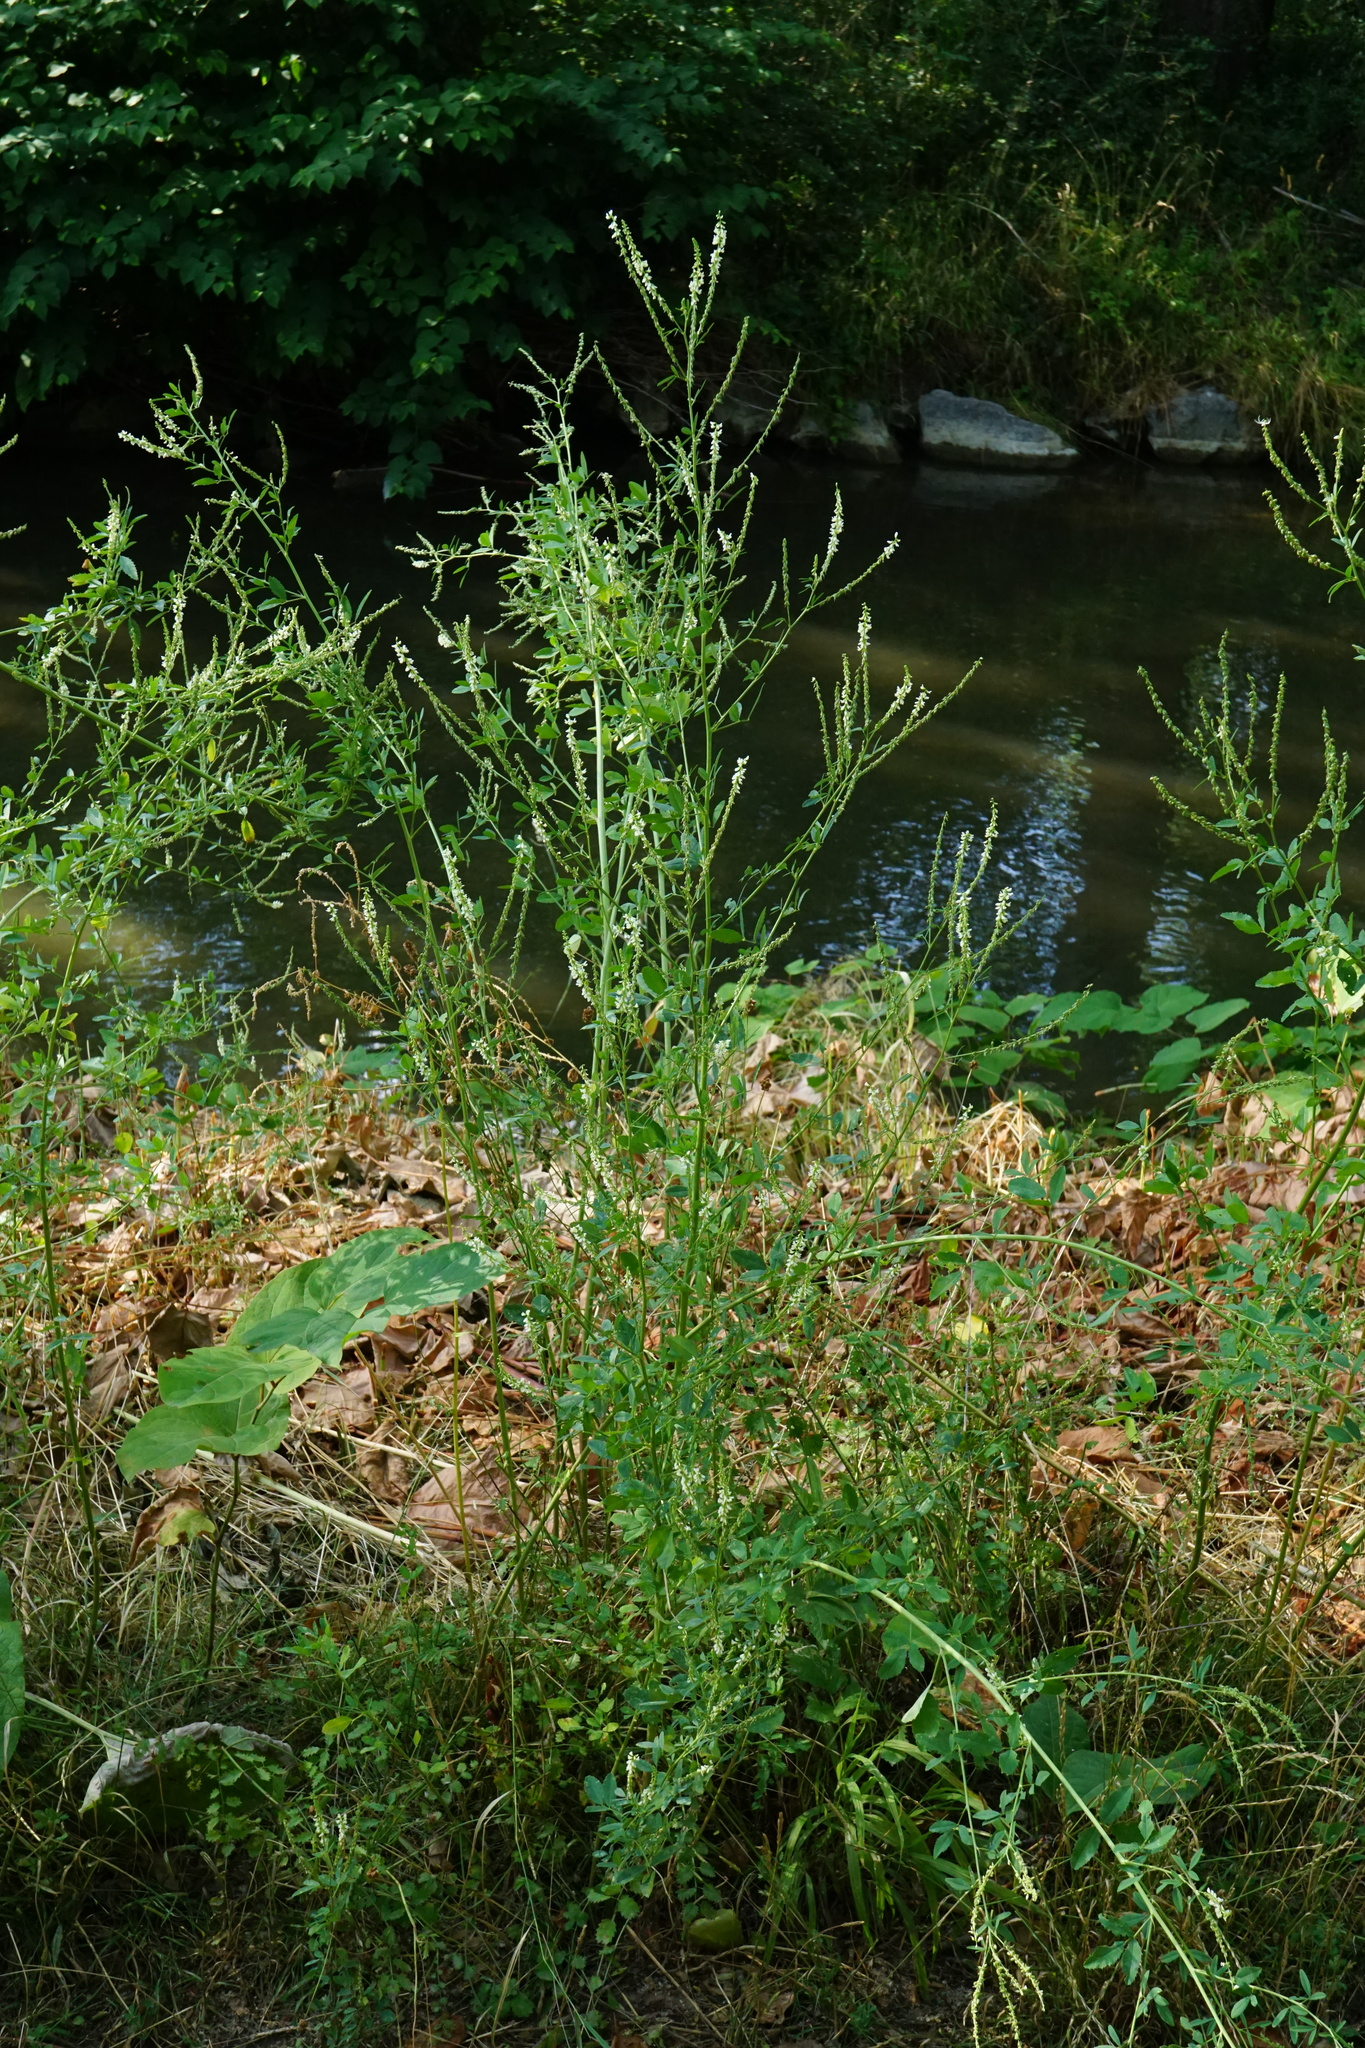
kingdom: Plantae
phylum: Tracheophyta
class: Magnoliopsida
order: Fabales
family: Fabaceae
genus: Melilotus
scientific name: Melilotus albus
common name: White melilot
